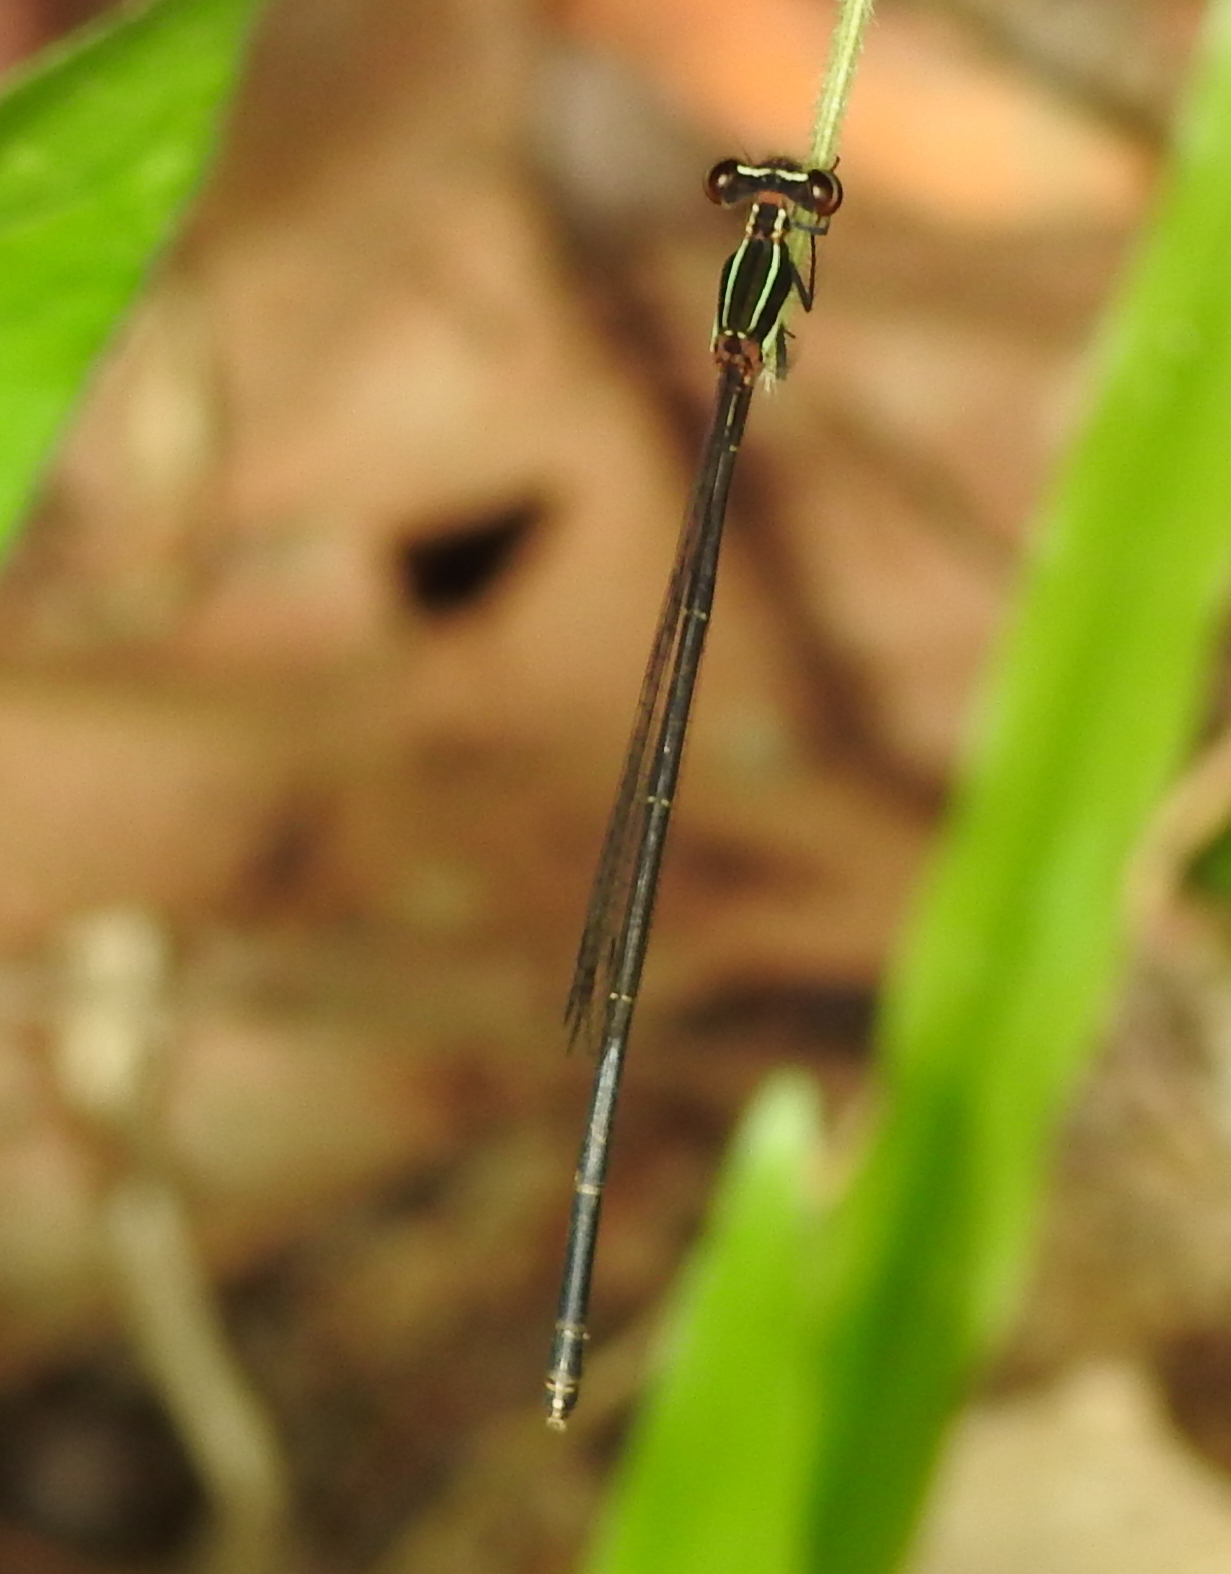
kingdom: Animalia
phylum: Arthropoda
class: Insecta
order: Odonata
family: Platycnemididae
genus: Prodasineura
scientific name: Prodasineura autumnalis
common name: Black threadtail
